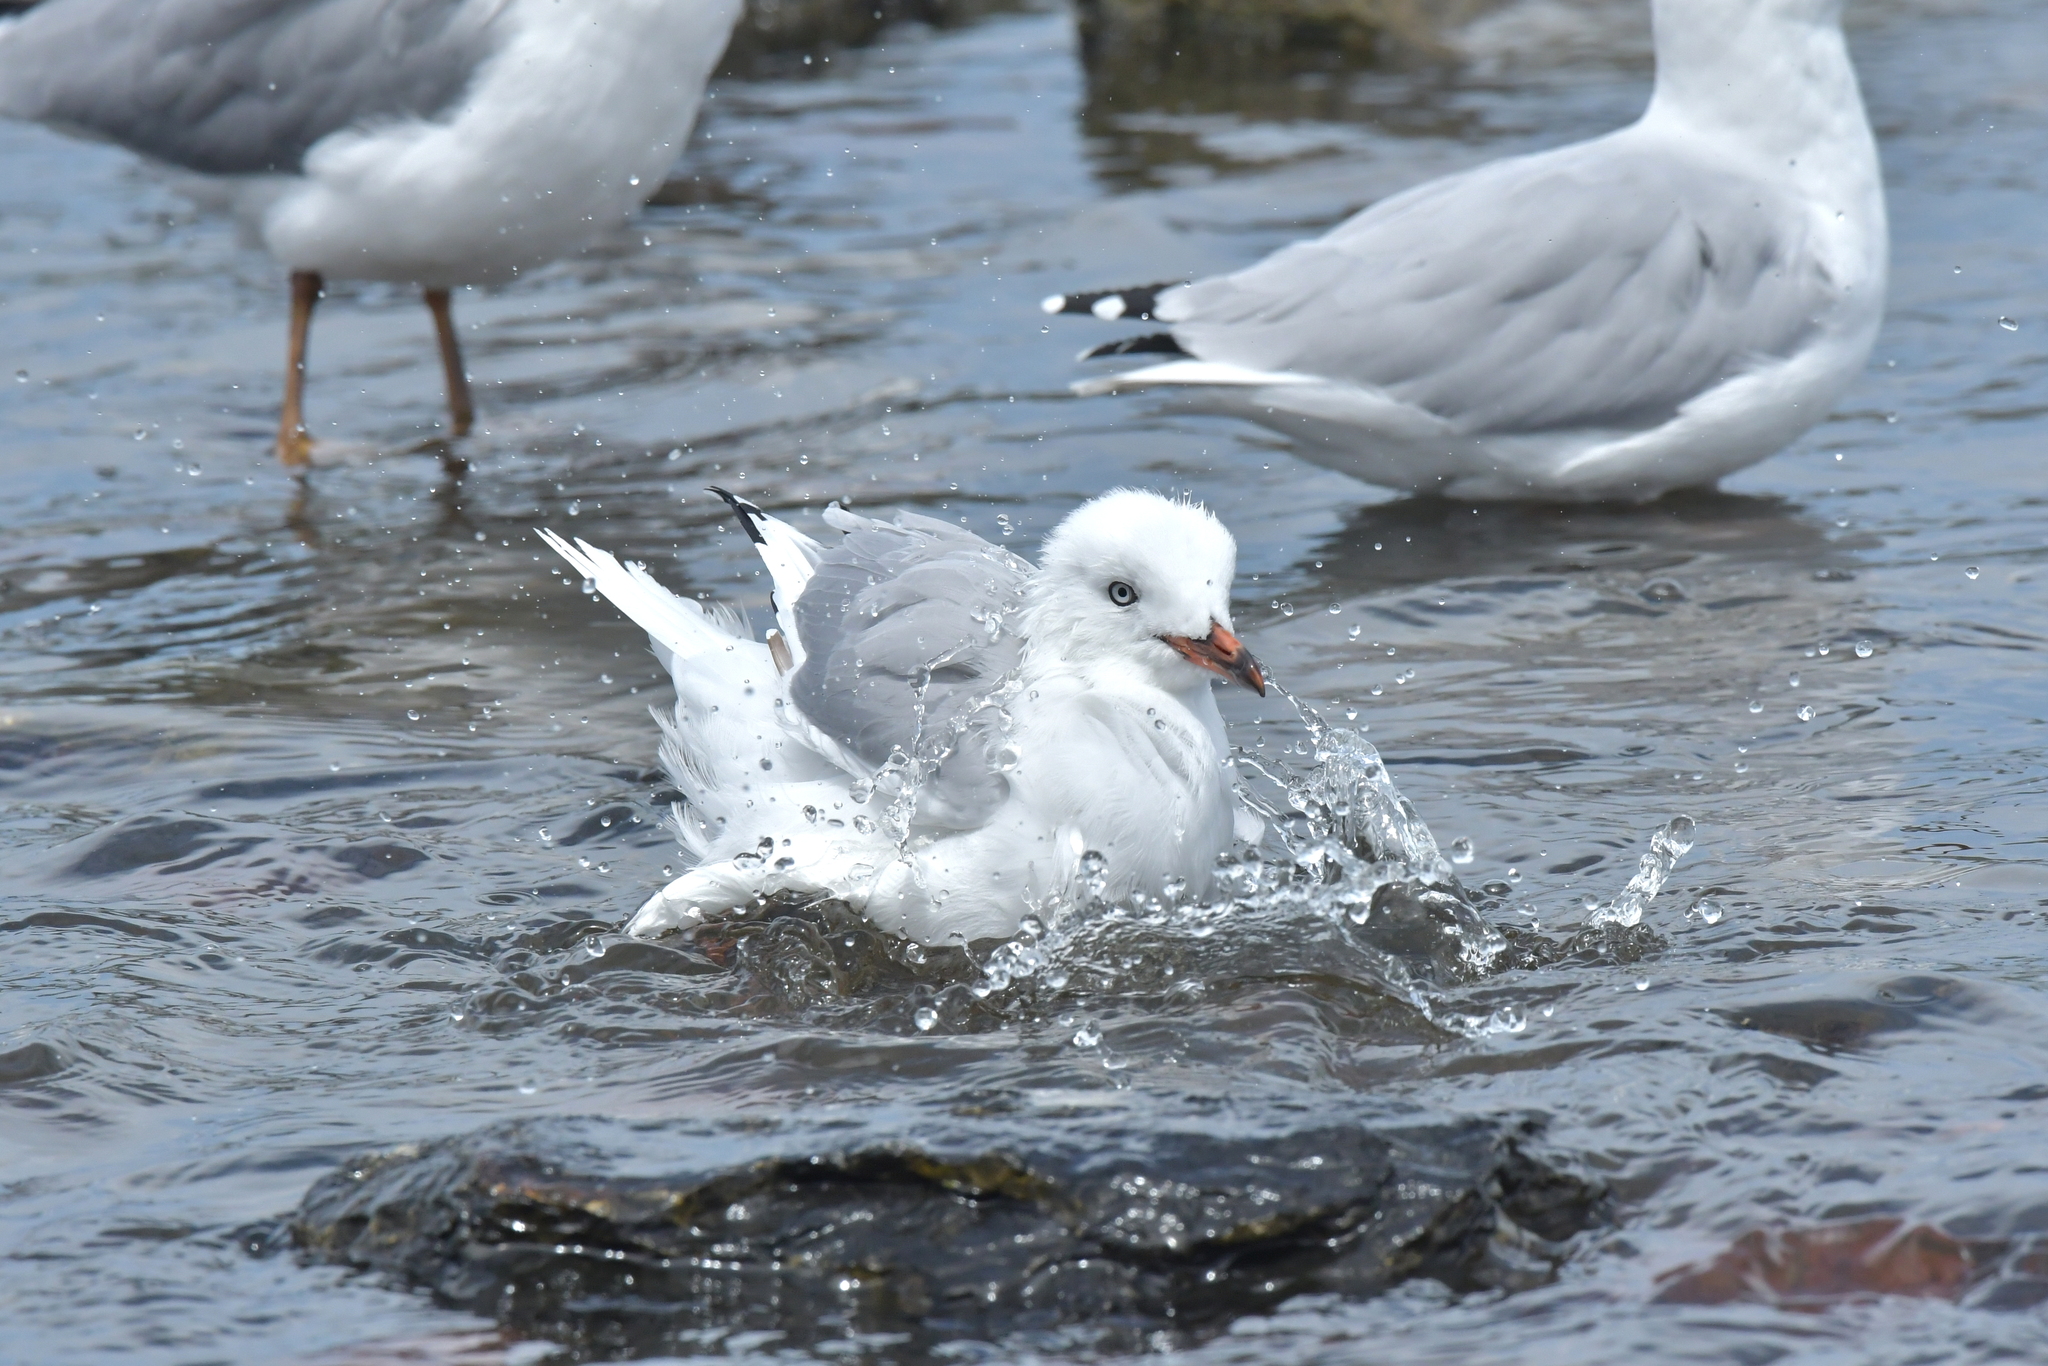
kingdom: Animalia
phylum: Chordata
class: Aves
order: Charadriiformes
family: Laridae
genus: Chroicocephalus
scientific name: Chroicocephalus novaehollandiae
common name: Silver gull
